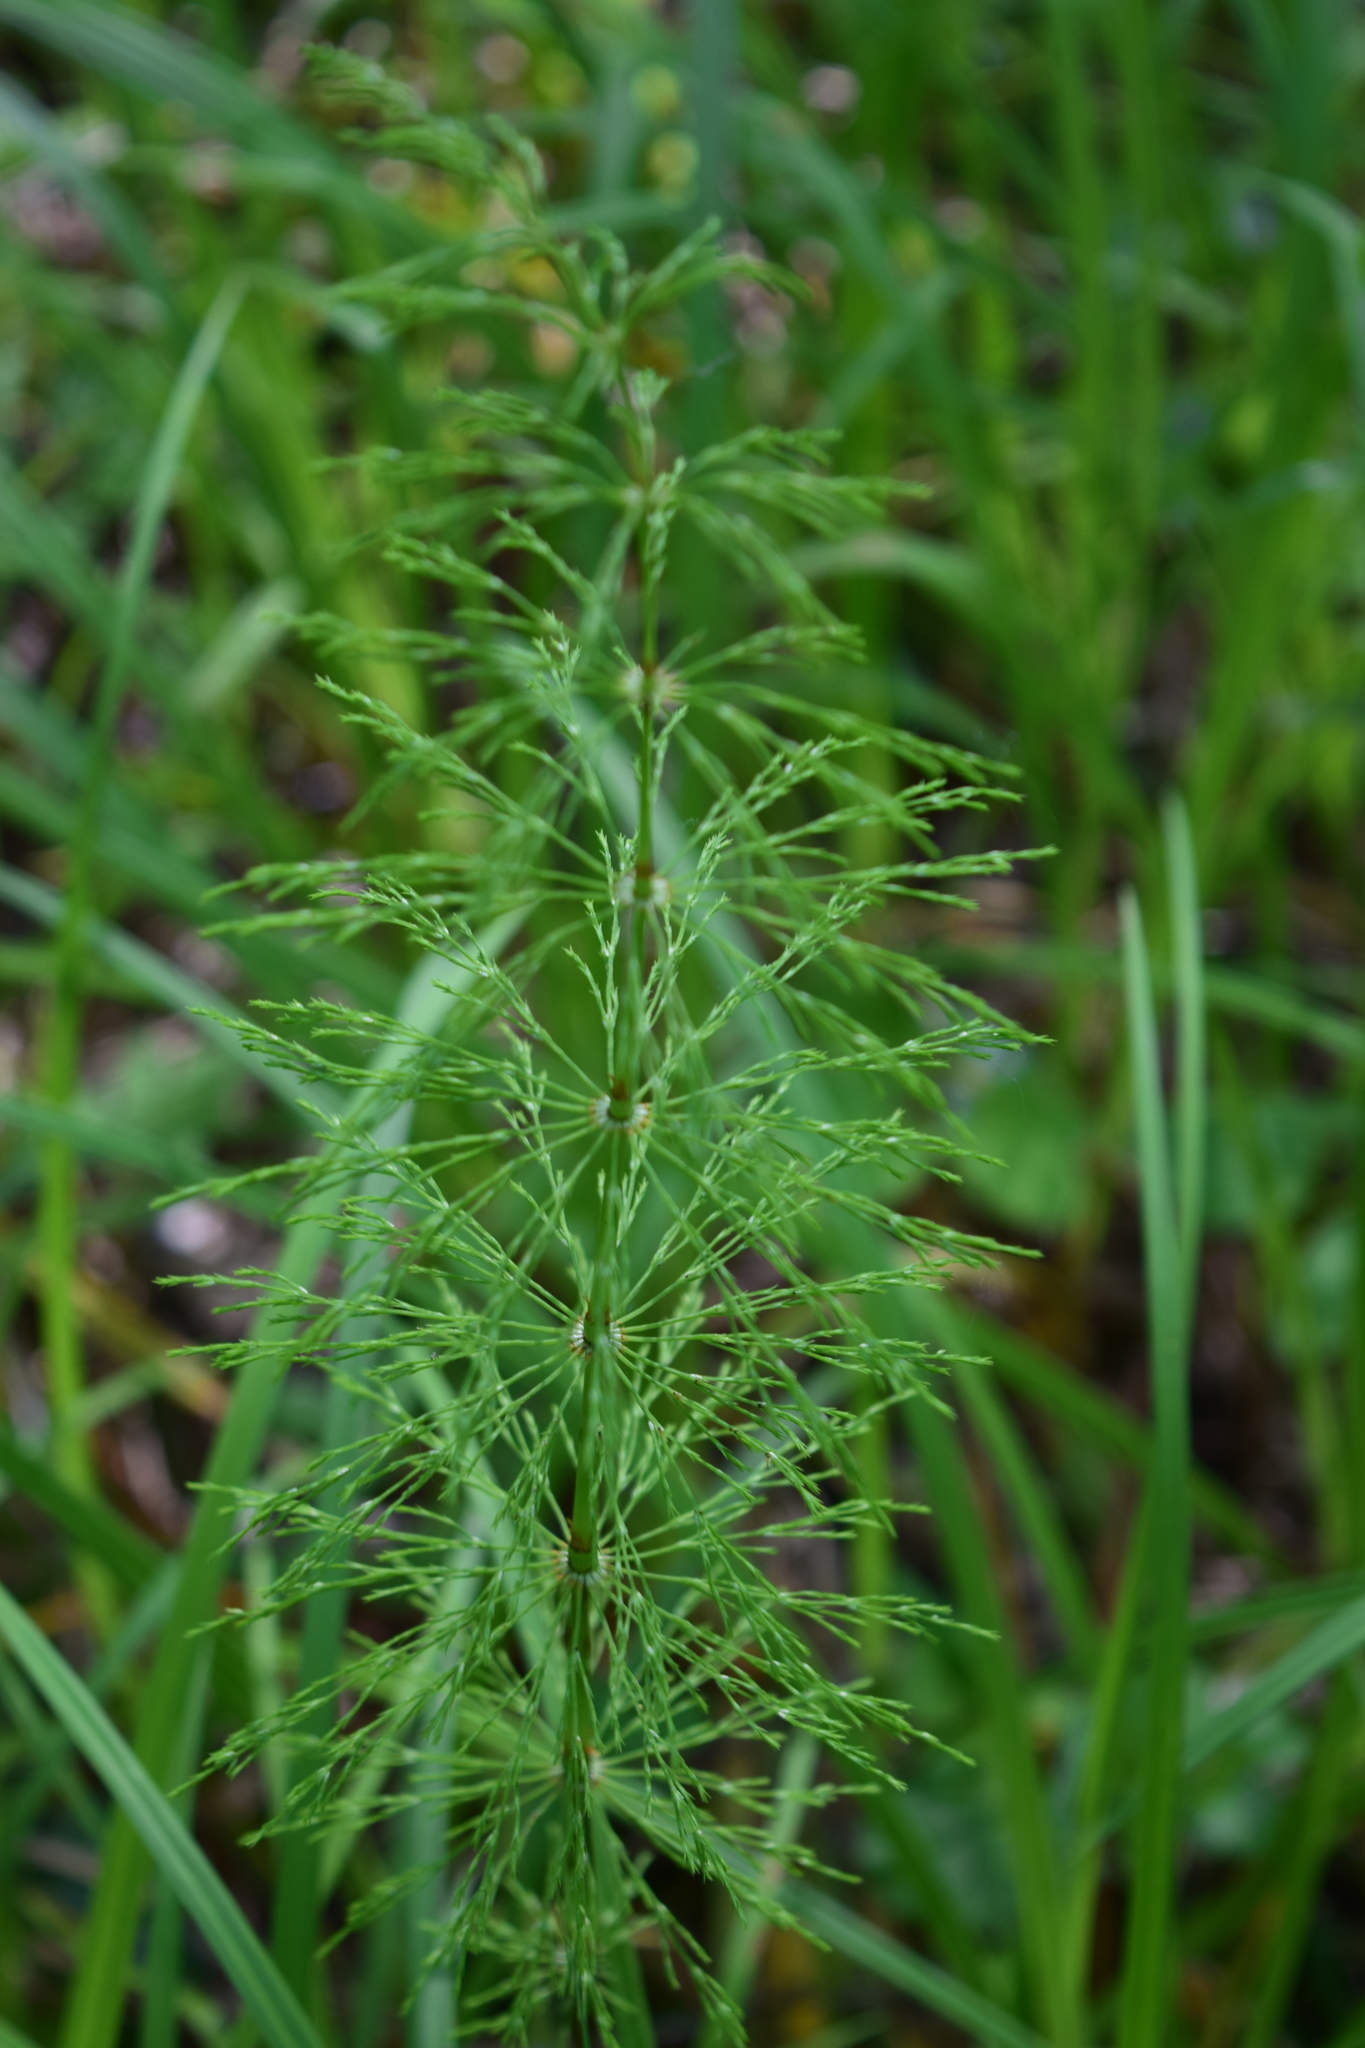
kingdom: Plantae
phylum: Tracheophyta
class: Polypodiopsida
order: Equisetales
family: Equisetaceae
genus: Equisetum
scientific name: Equisetum sylvaticum
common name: Wood horsetail
